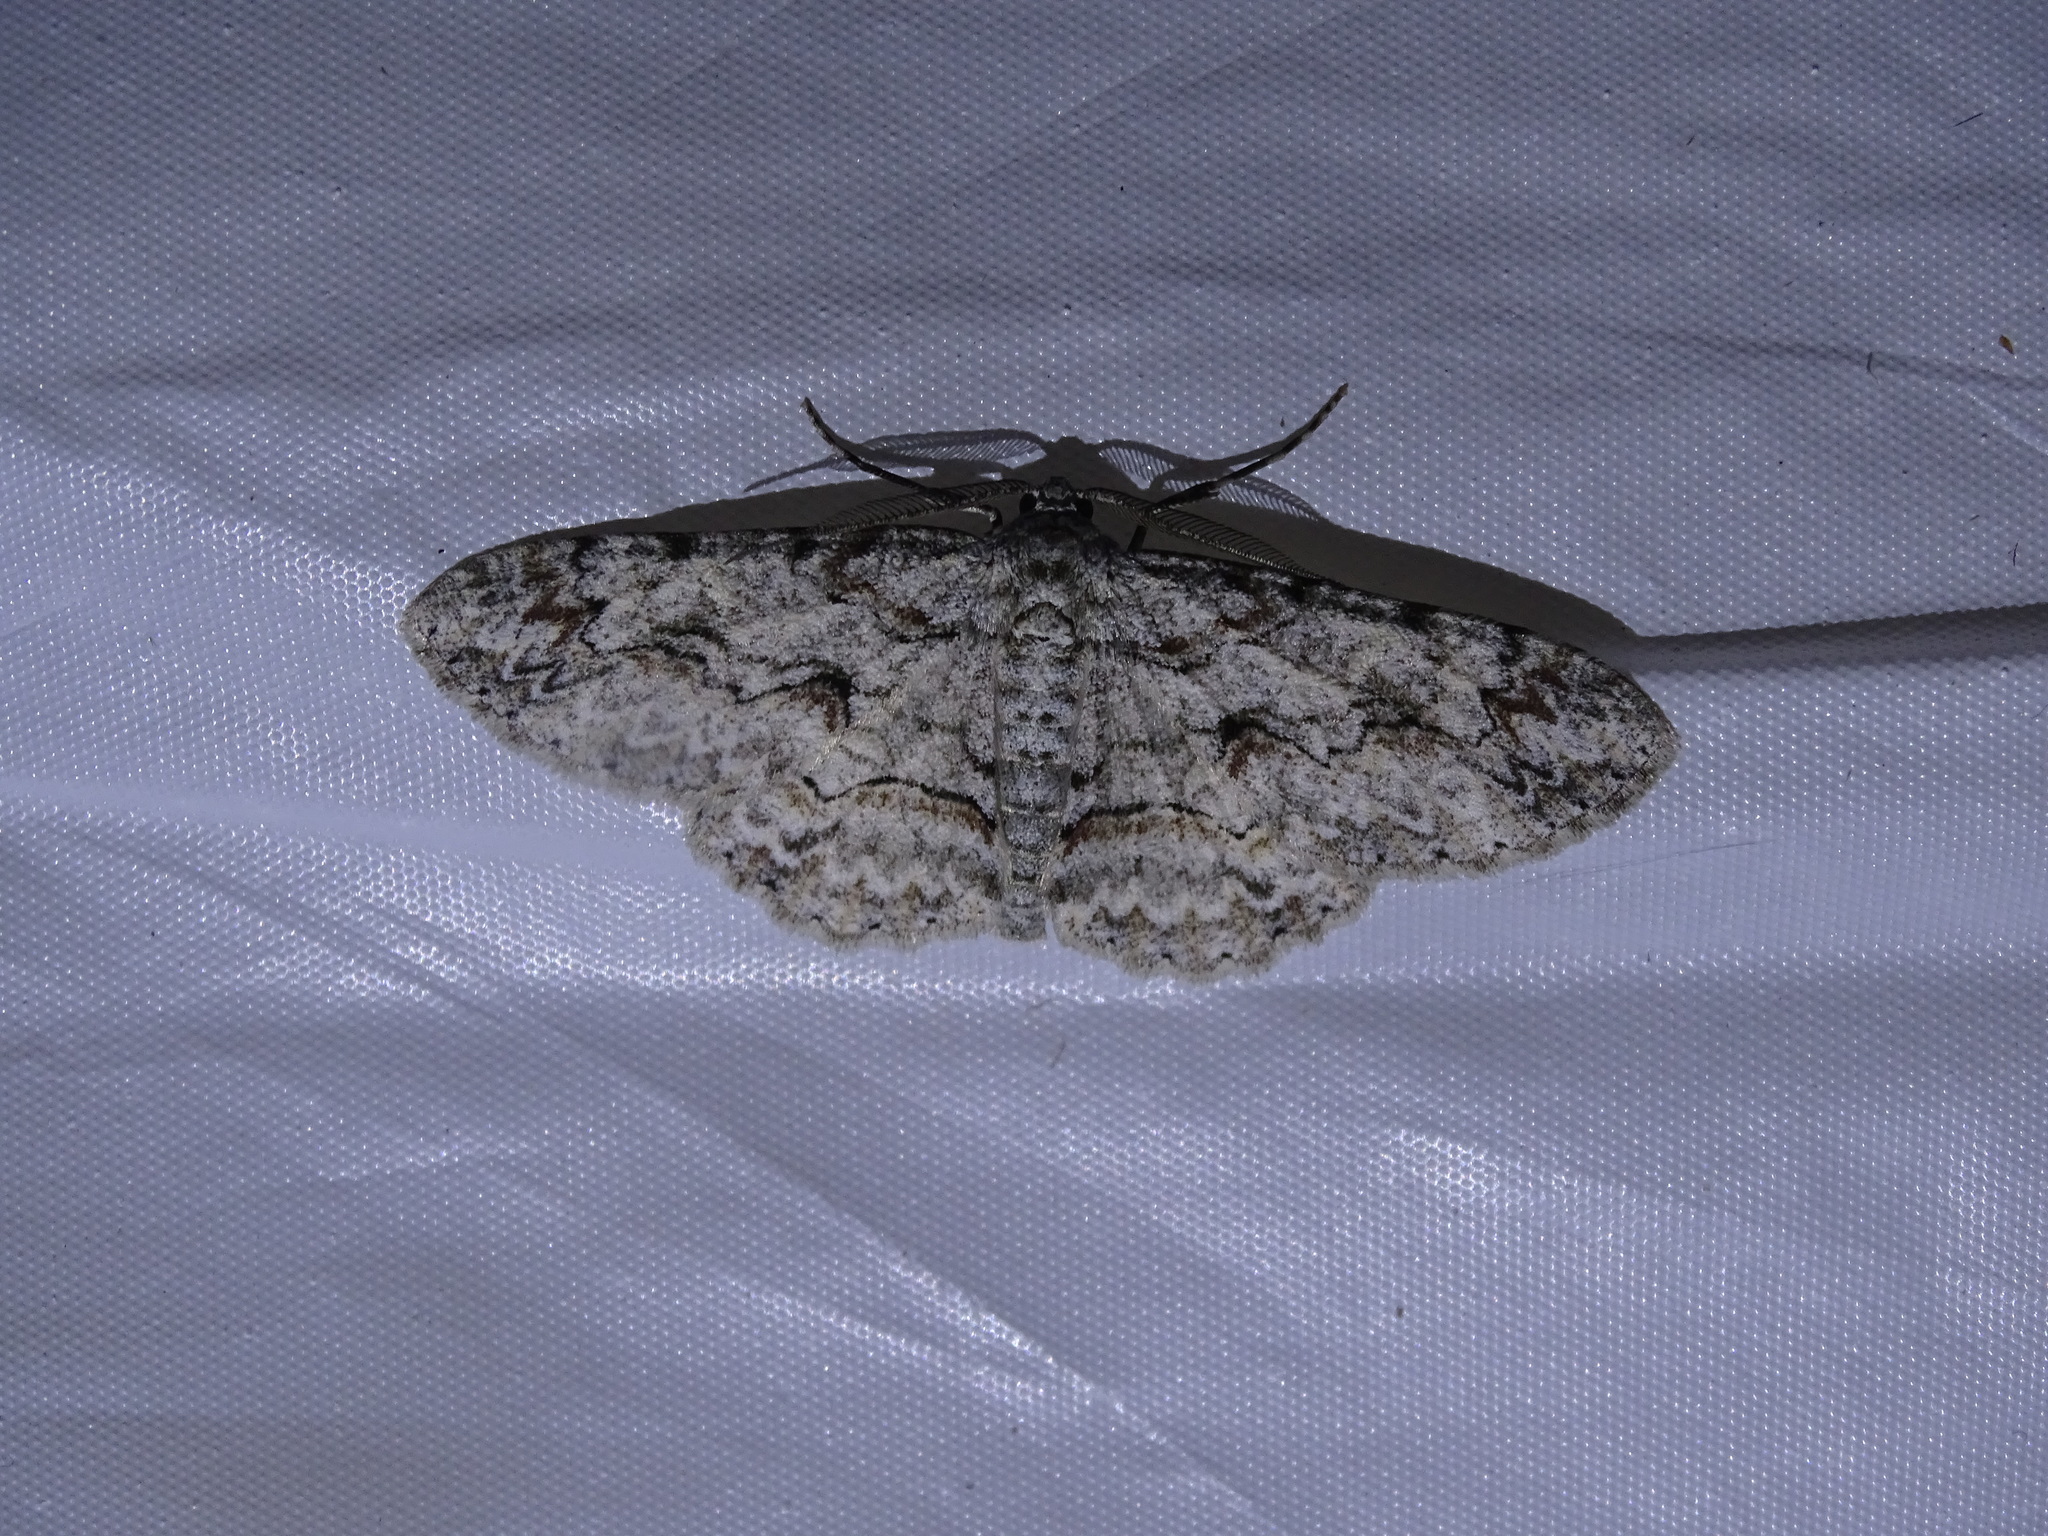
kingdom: Animalia
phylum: Arthropoda
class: Insecta
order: Lepidoptera
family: Geometridae
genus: Iridopsis
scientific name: Iridopsis defectaria
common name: Brown-shaded gray
